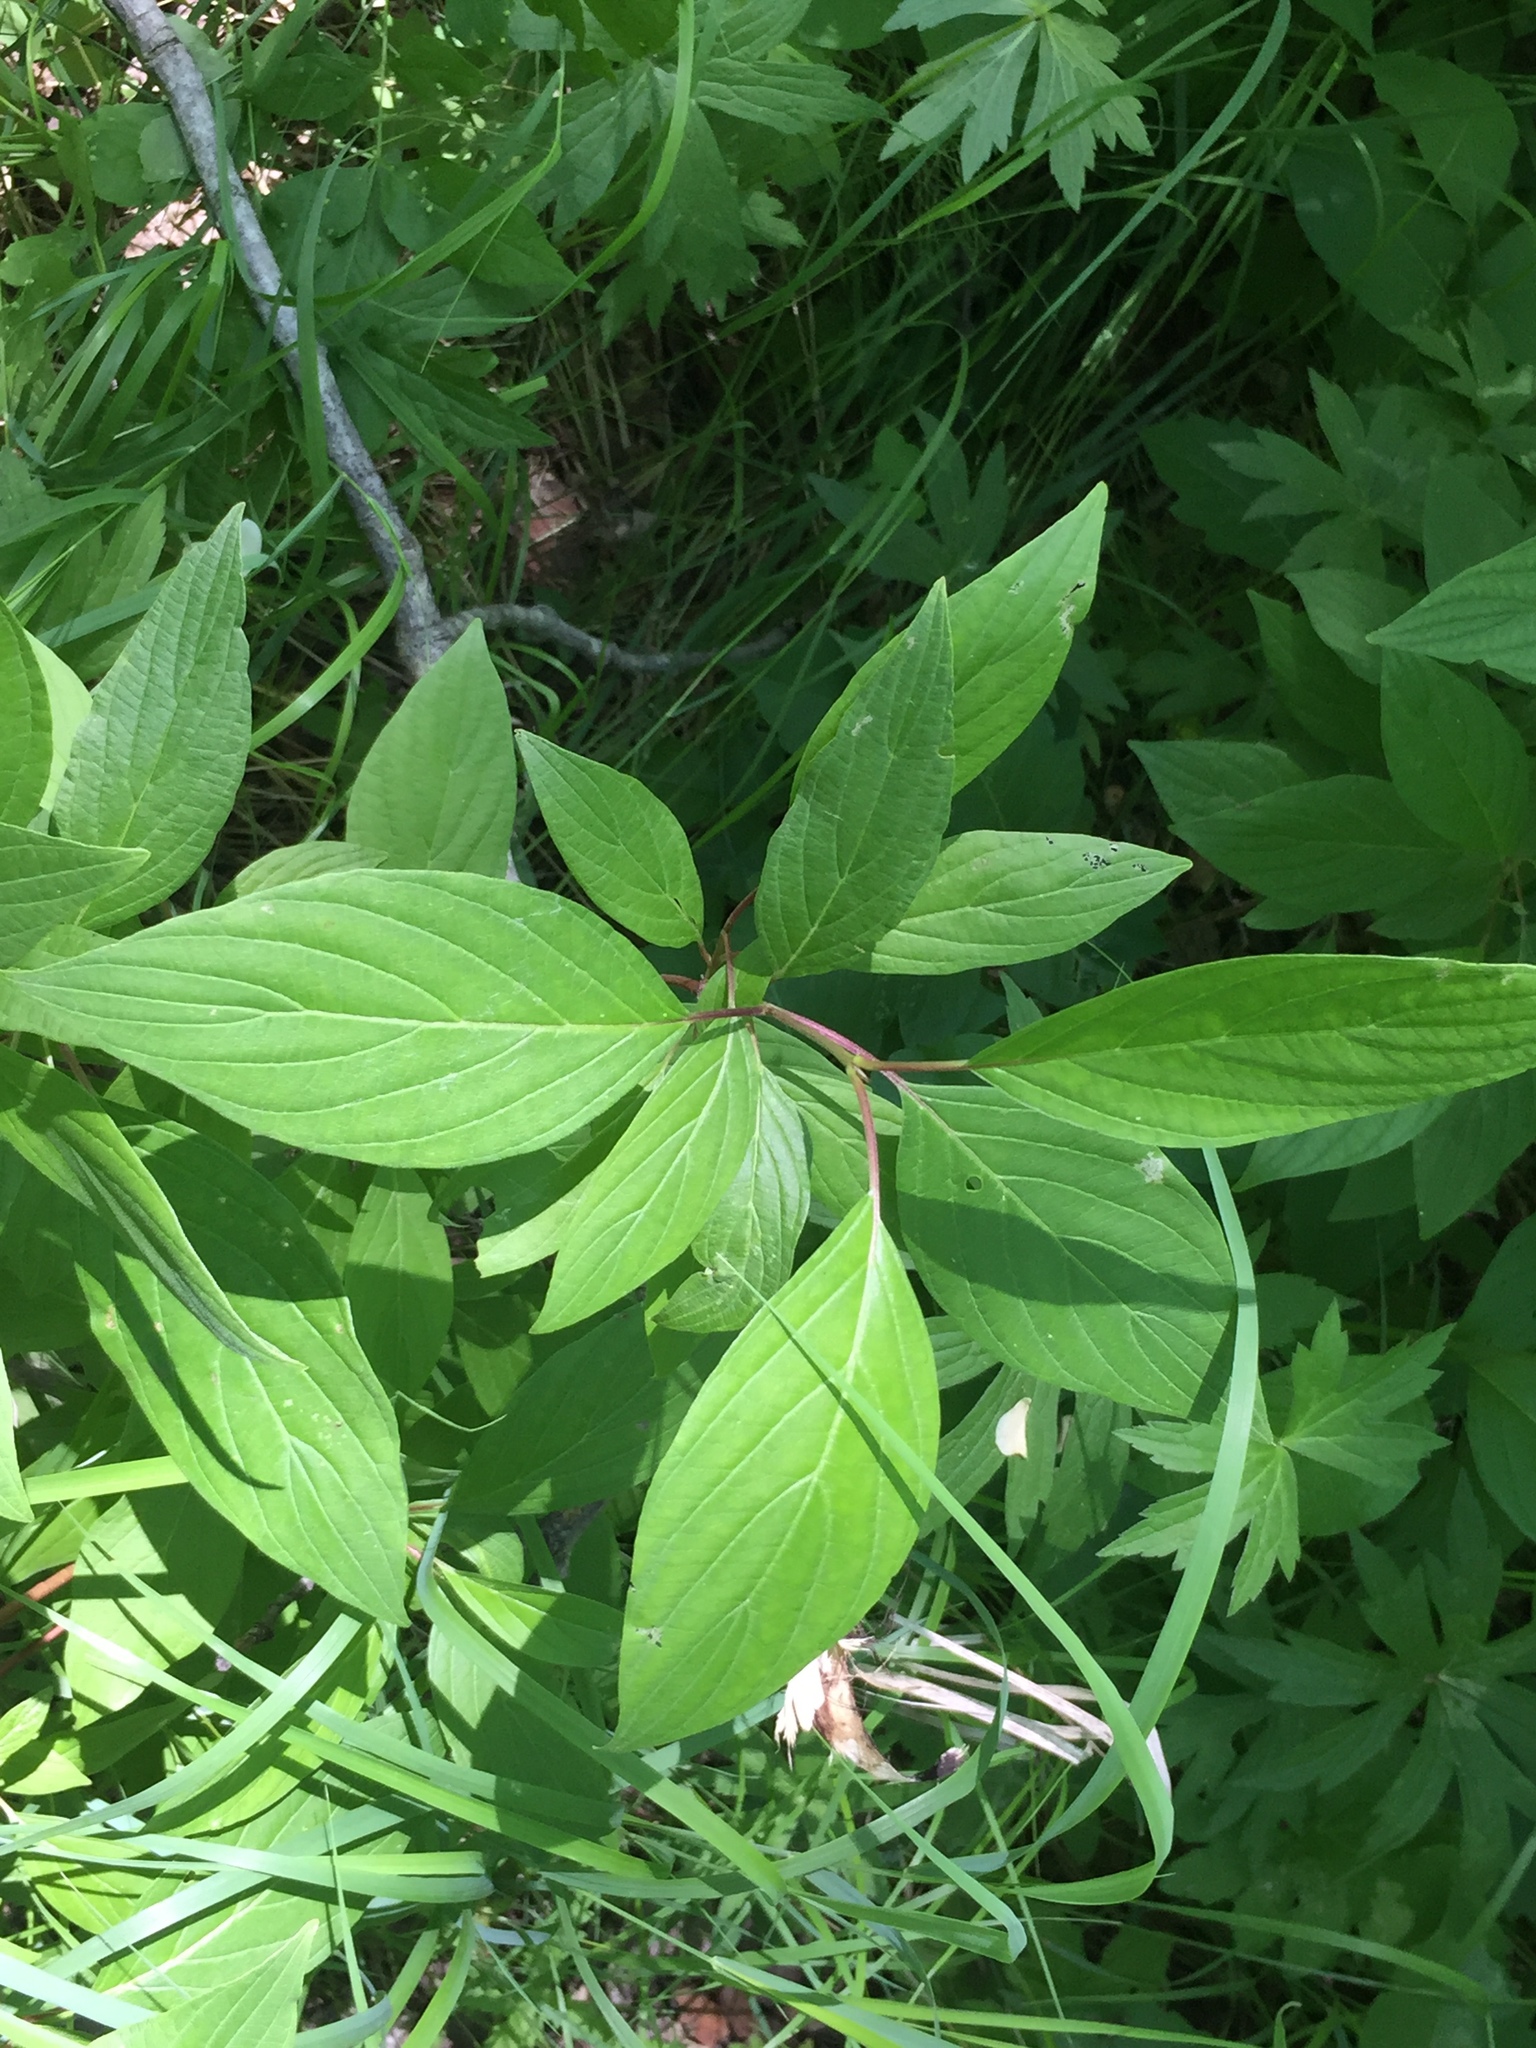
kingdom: Plantae
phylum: Tracheophyta
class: Magnoliopsida
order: Cornales
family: Cornaceae
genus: Cornus
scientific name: Cornus sericea
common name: Red-osier dogwood
